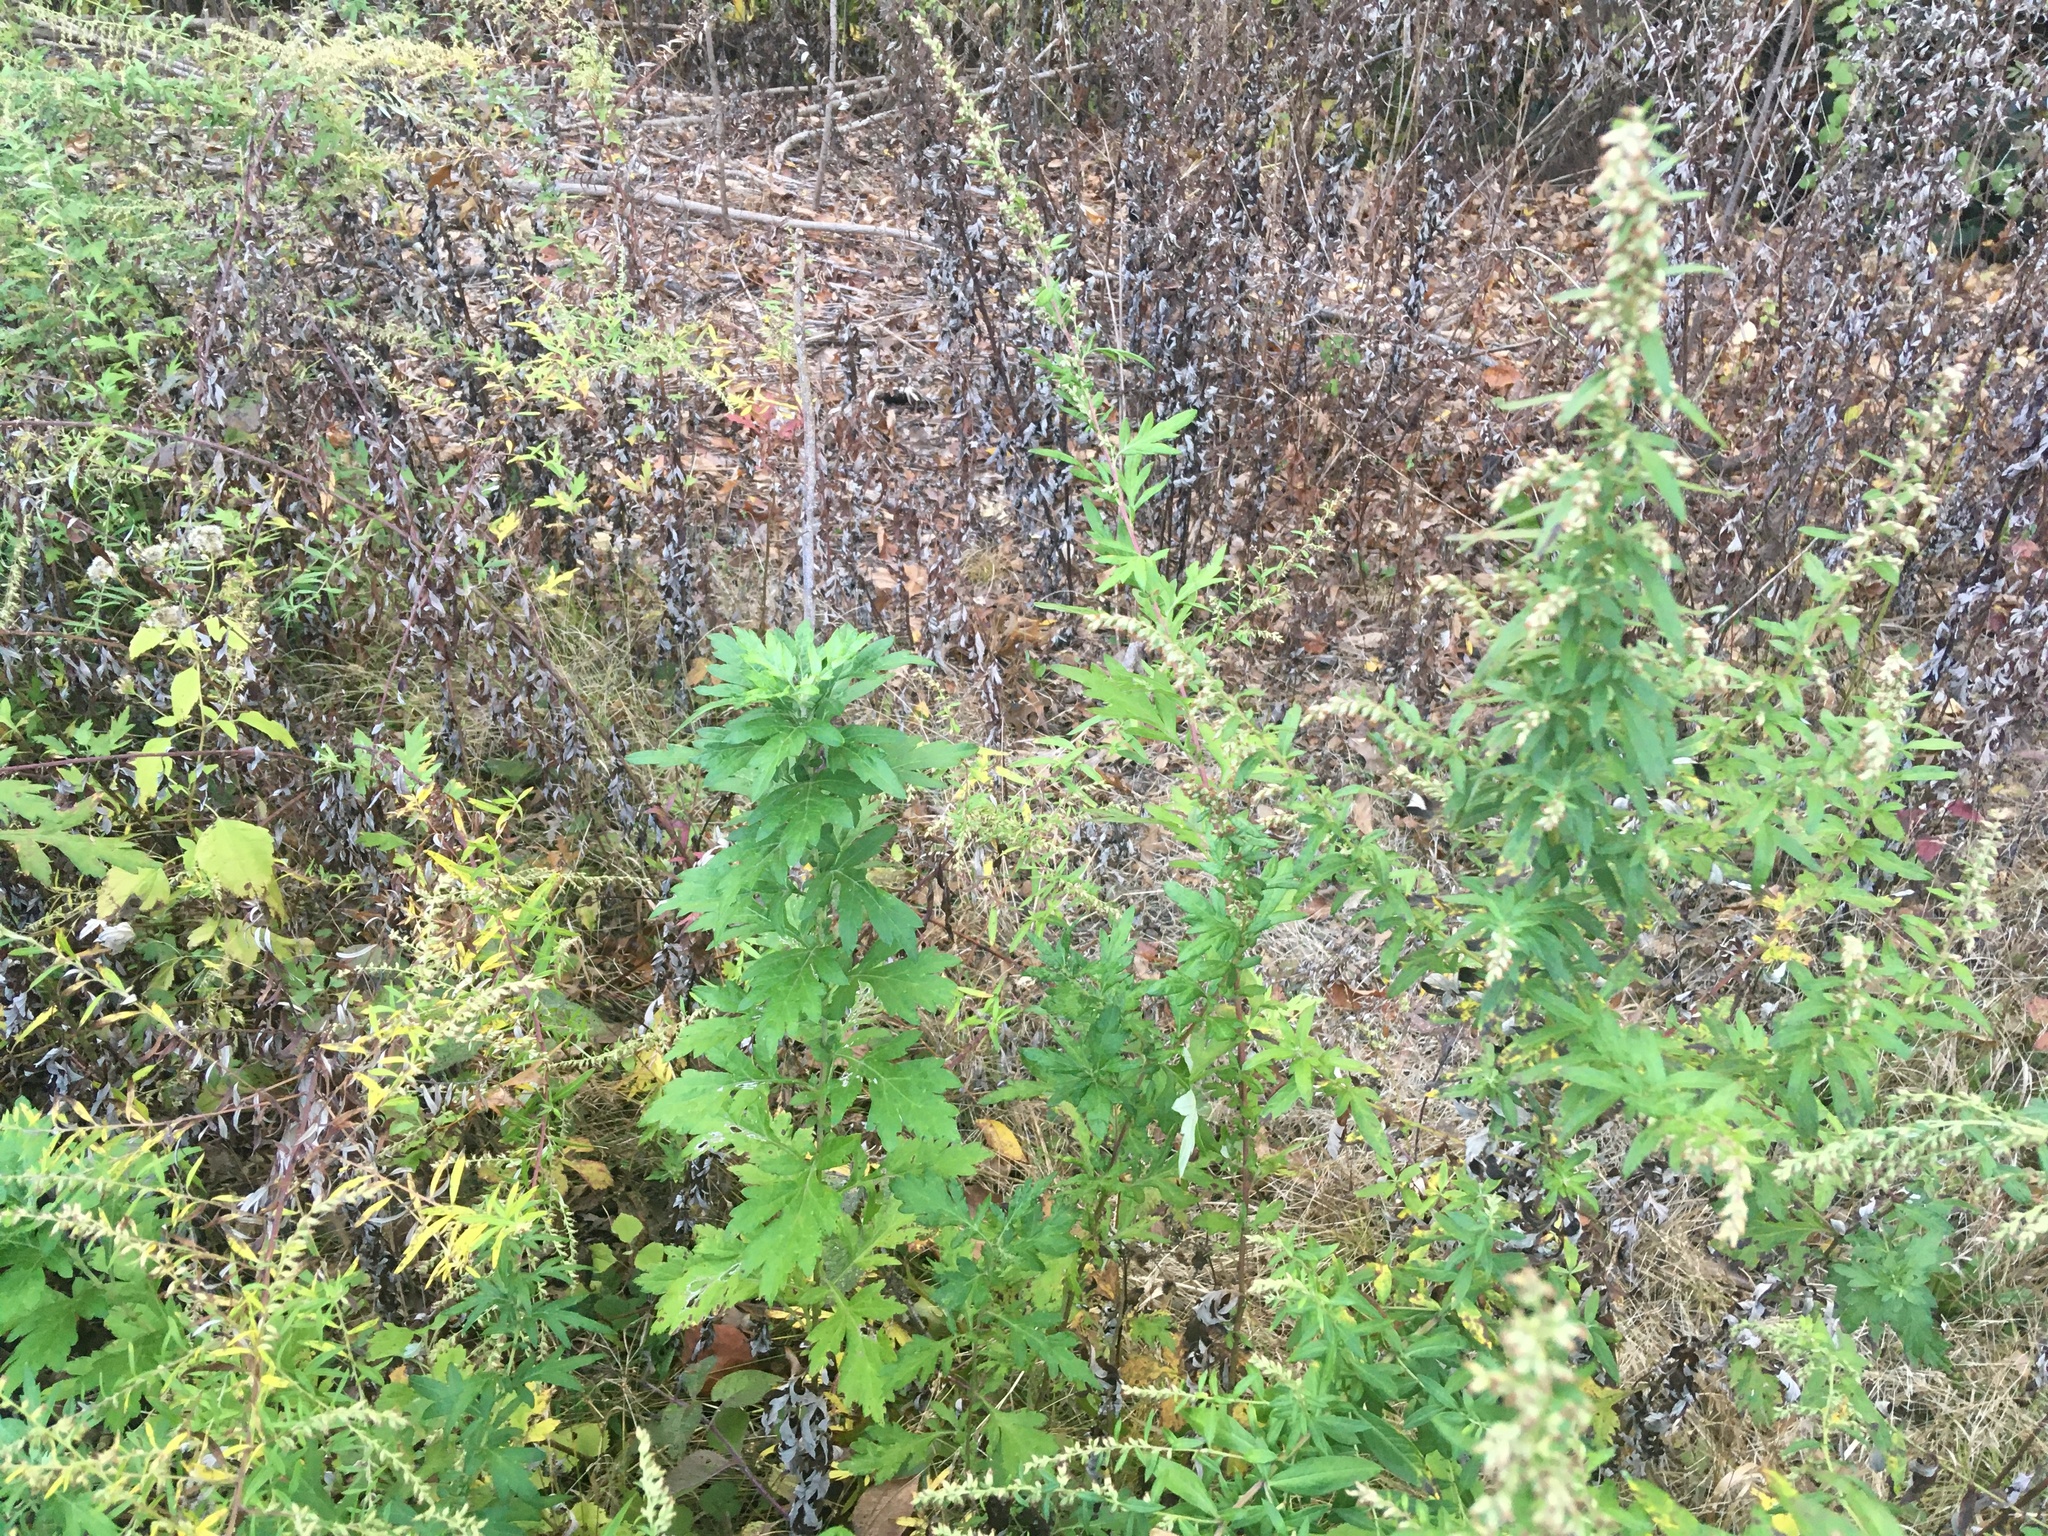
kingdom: Plantae
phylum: Tracheophyta
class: Magnoliopsida
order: Asterales
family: Asteraceae
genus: Artemisia
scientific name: Artemisia vulgaris
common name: Mugwort
